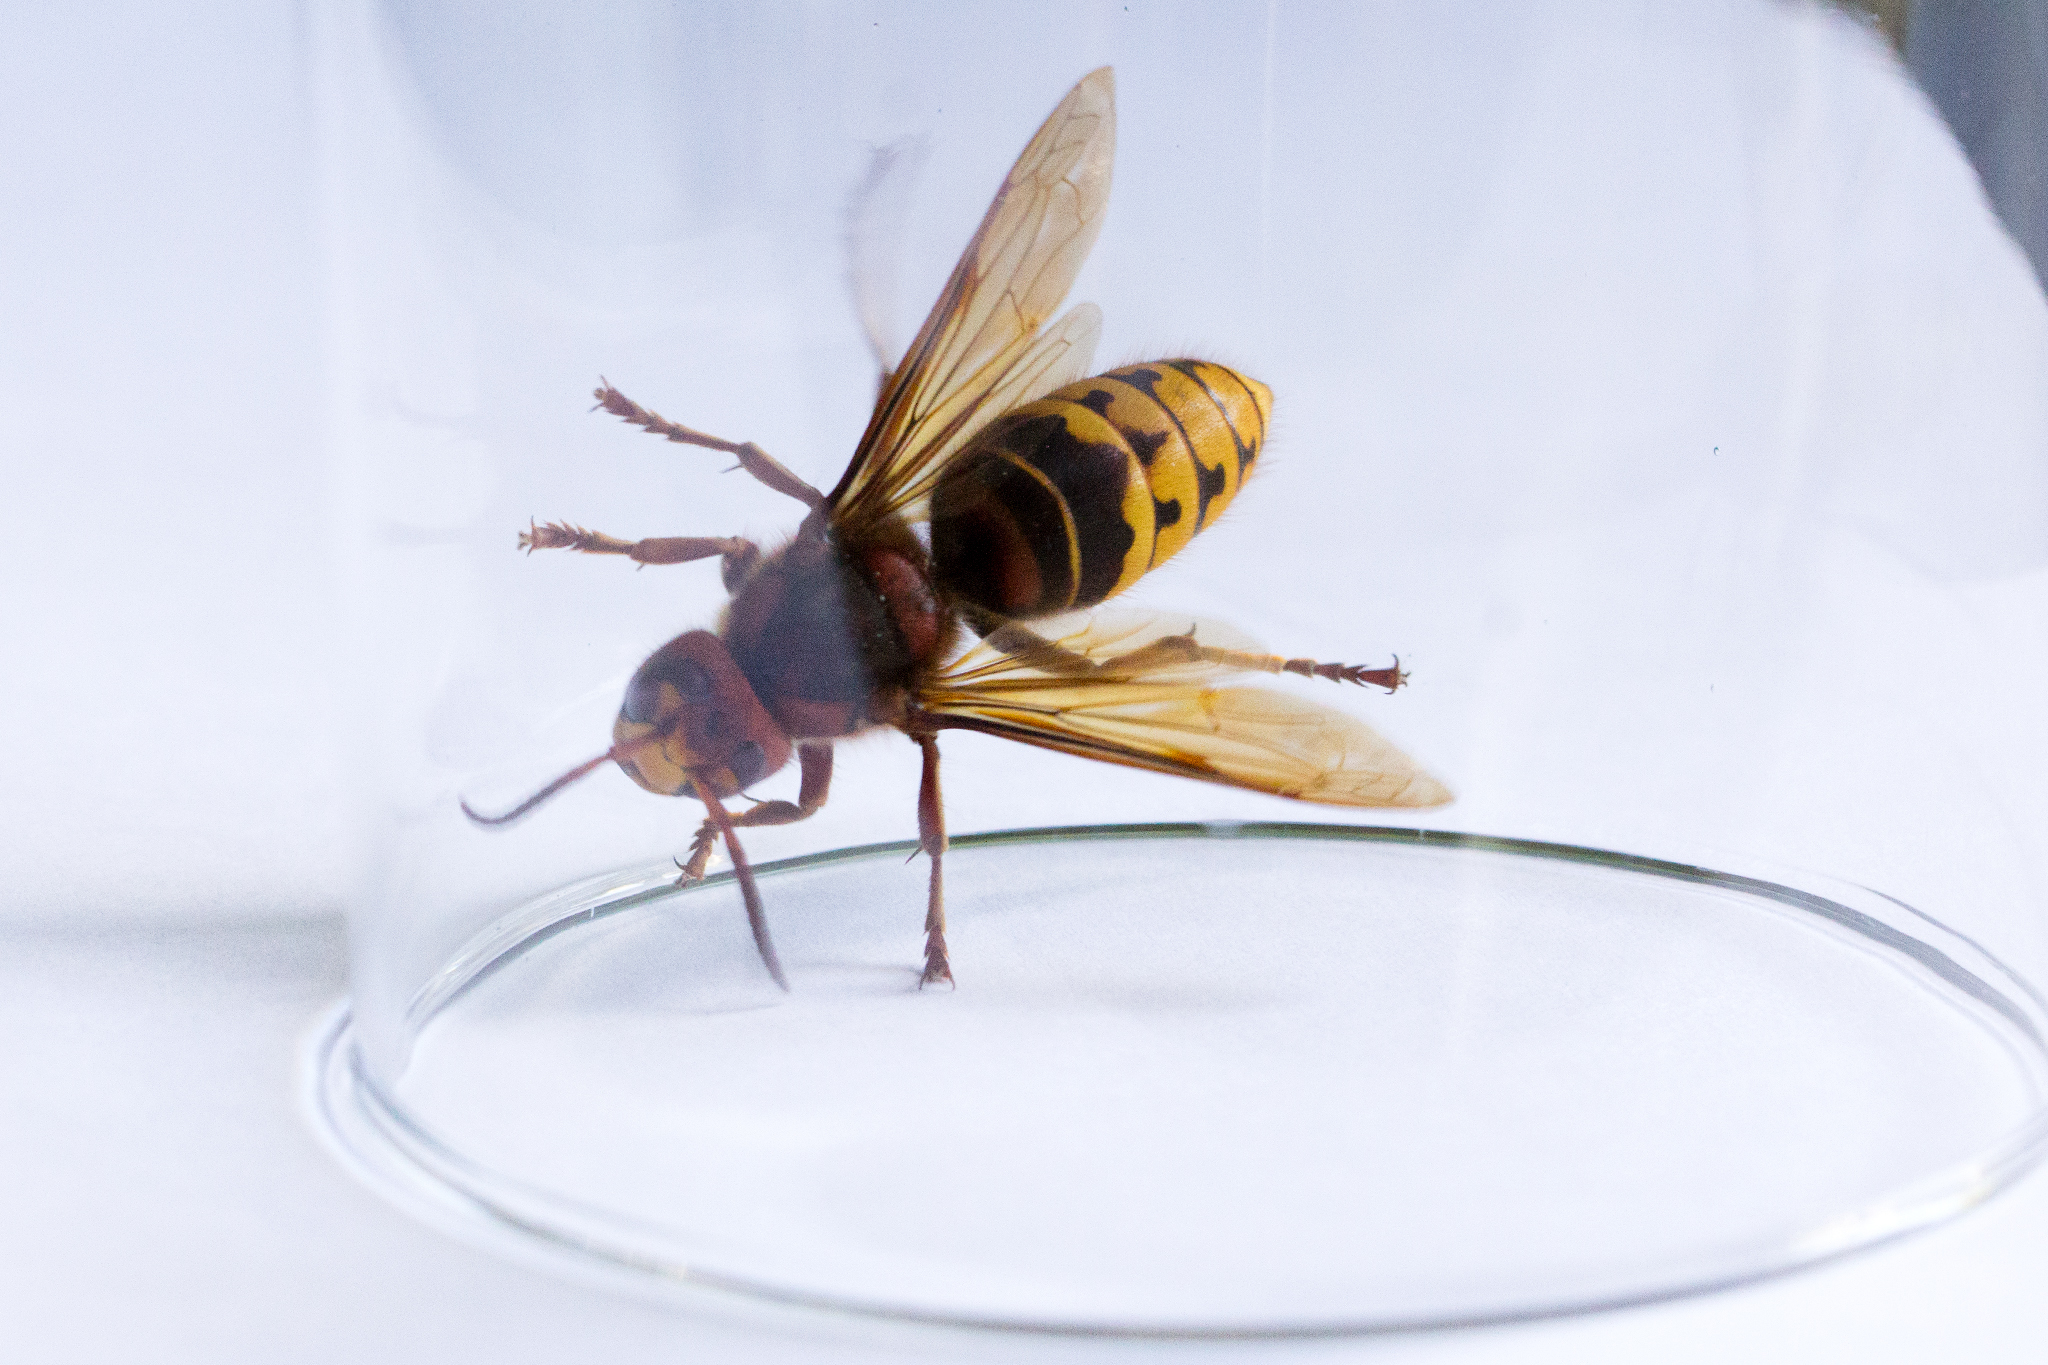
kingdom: Animalia
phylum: Arthropoda
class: Insecta
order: Hymenoptera
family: Vespidae
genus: Vespa
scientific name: Vespa crabro
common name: Hornet
